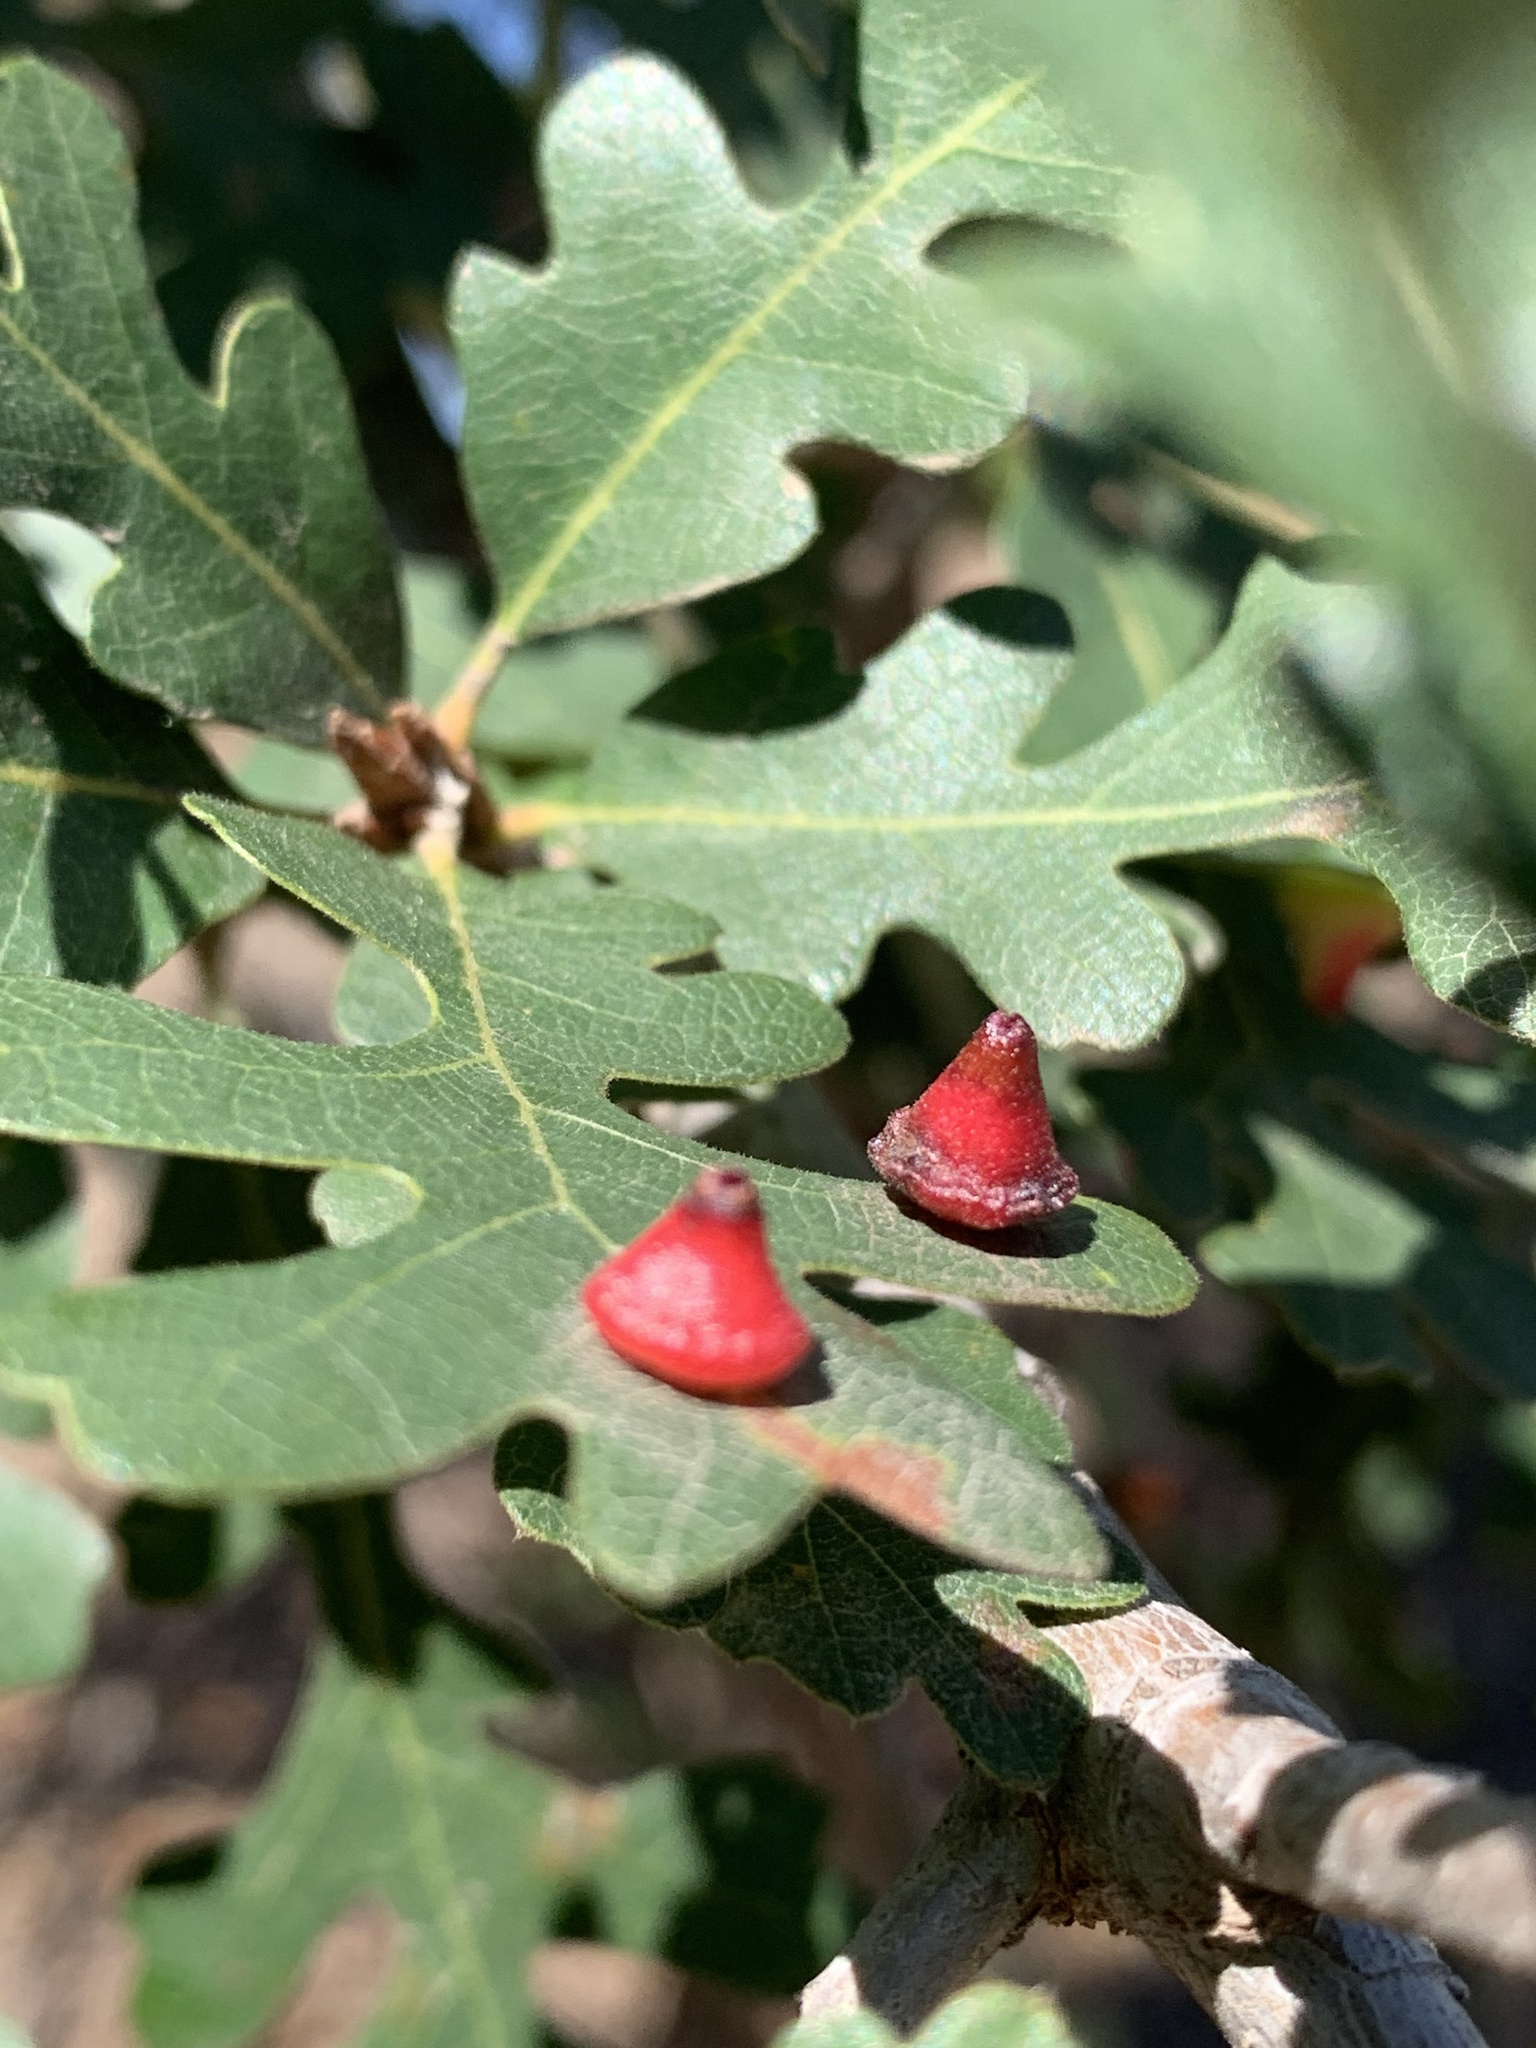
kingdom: Animalia
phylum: Arthropoda
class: Insecta
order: Hymenoptera
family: Cynipidae
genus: Andricus
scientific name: Andricus
